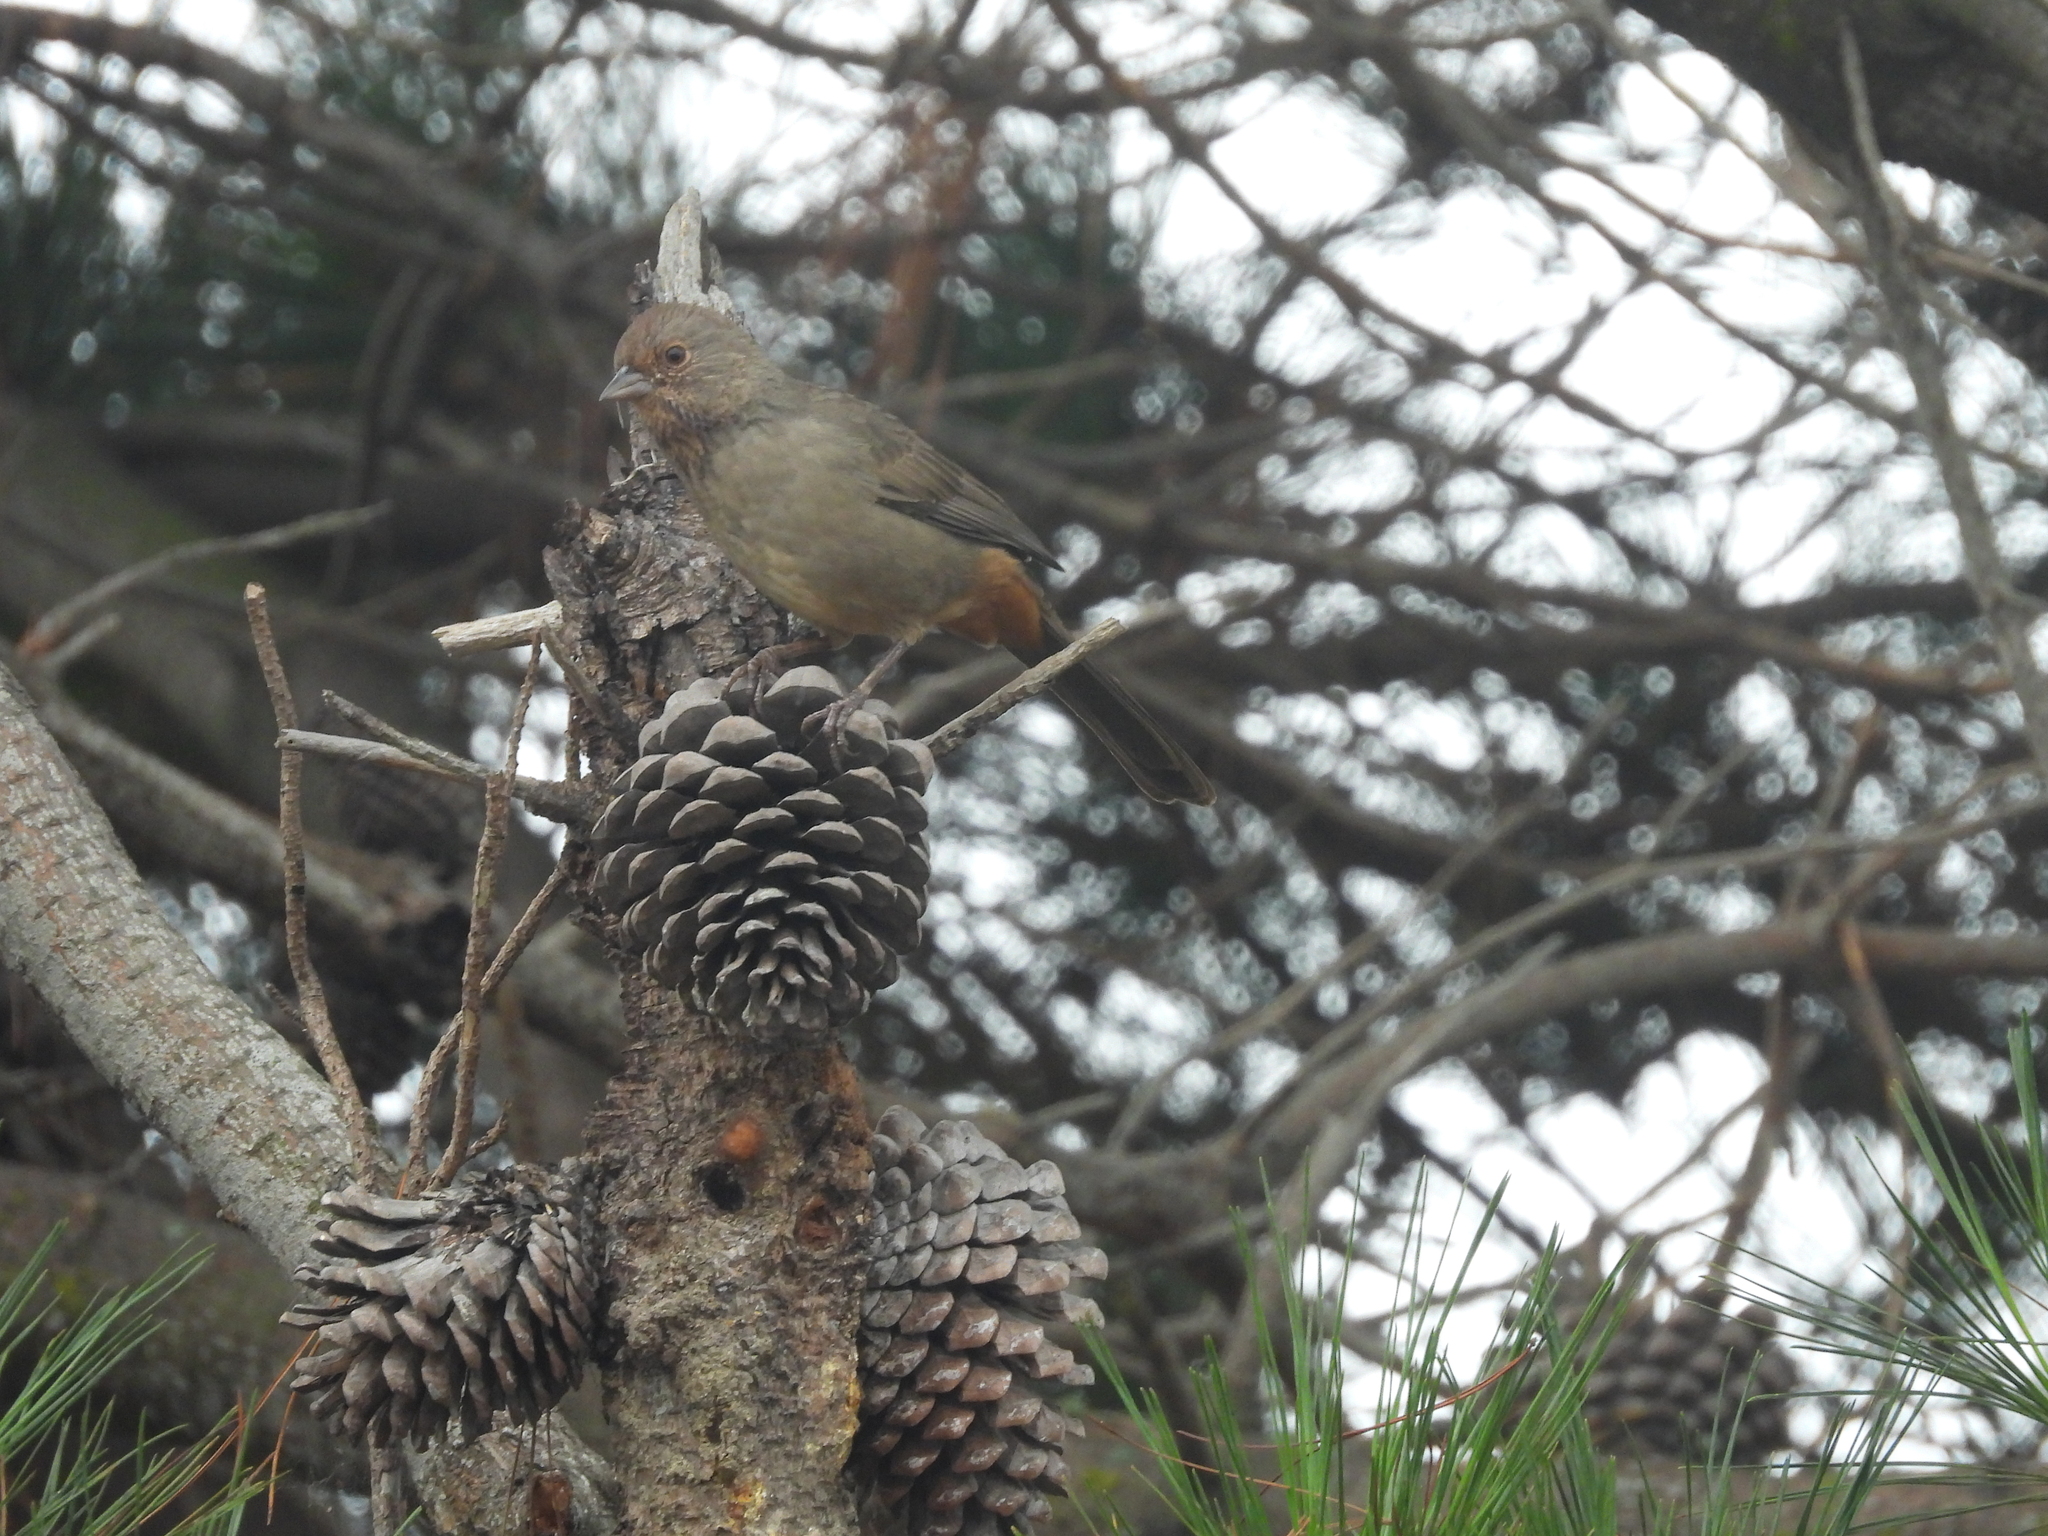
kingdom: Animalia
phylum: Chordata
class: Aves
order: Passeriformes
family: Passerellidae
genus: Melozone
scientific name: Melozone crissalis
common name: California towhee
